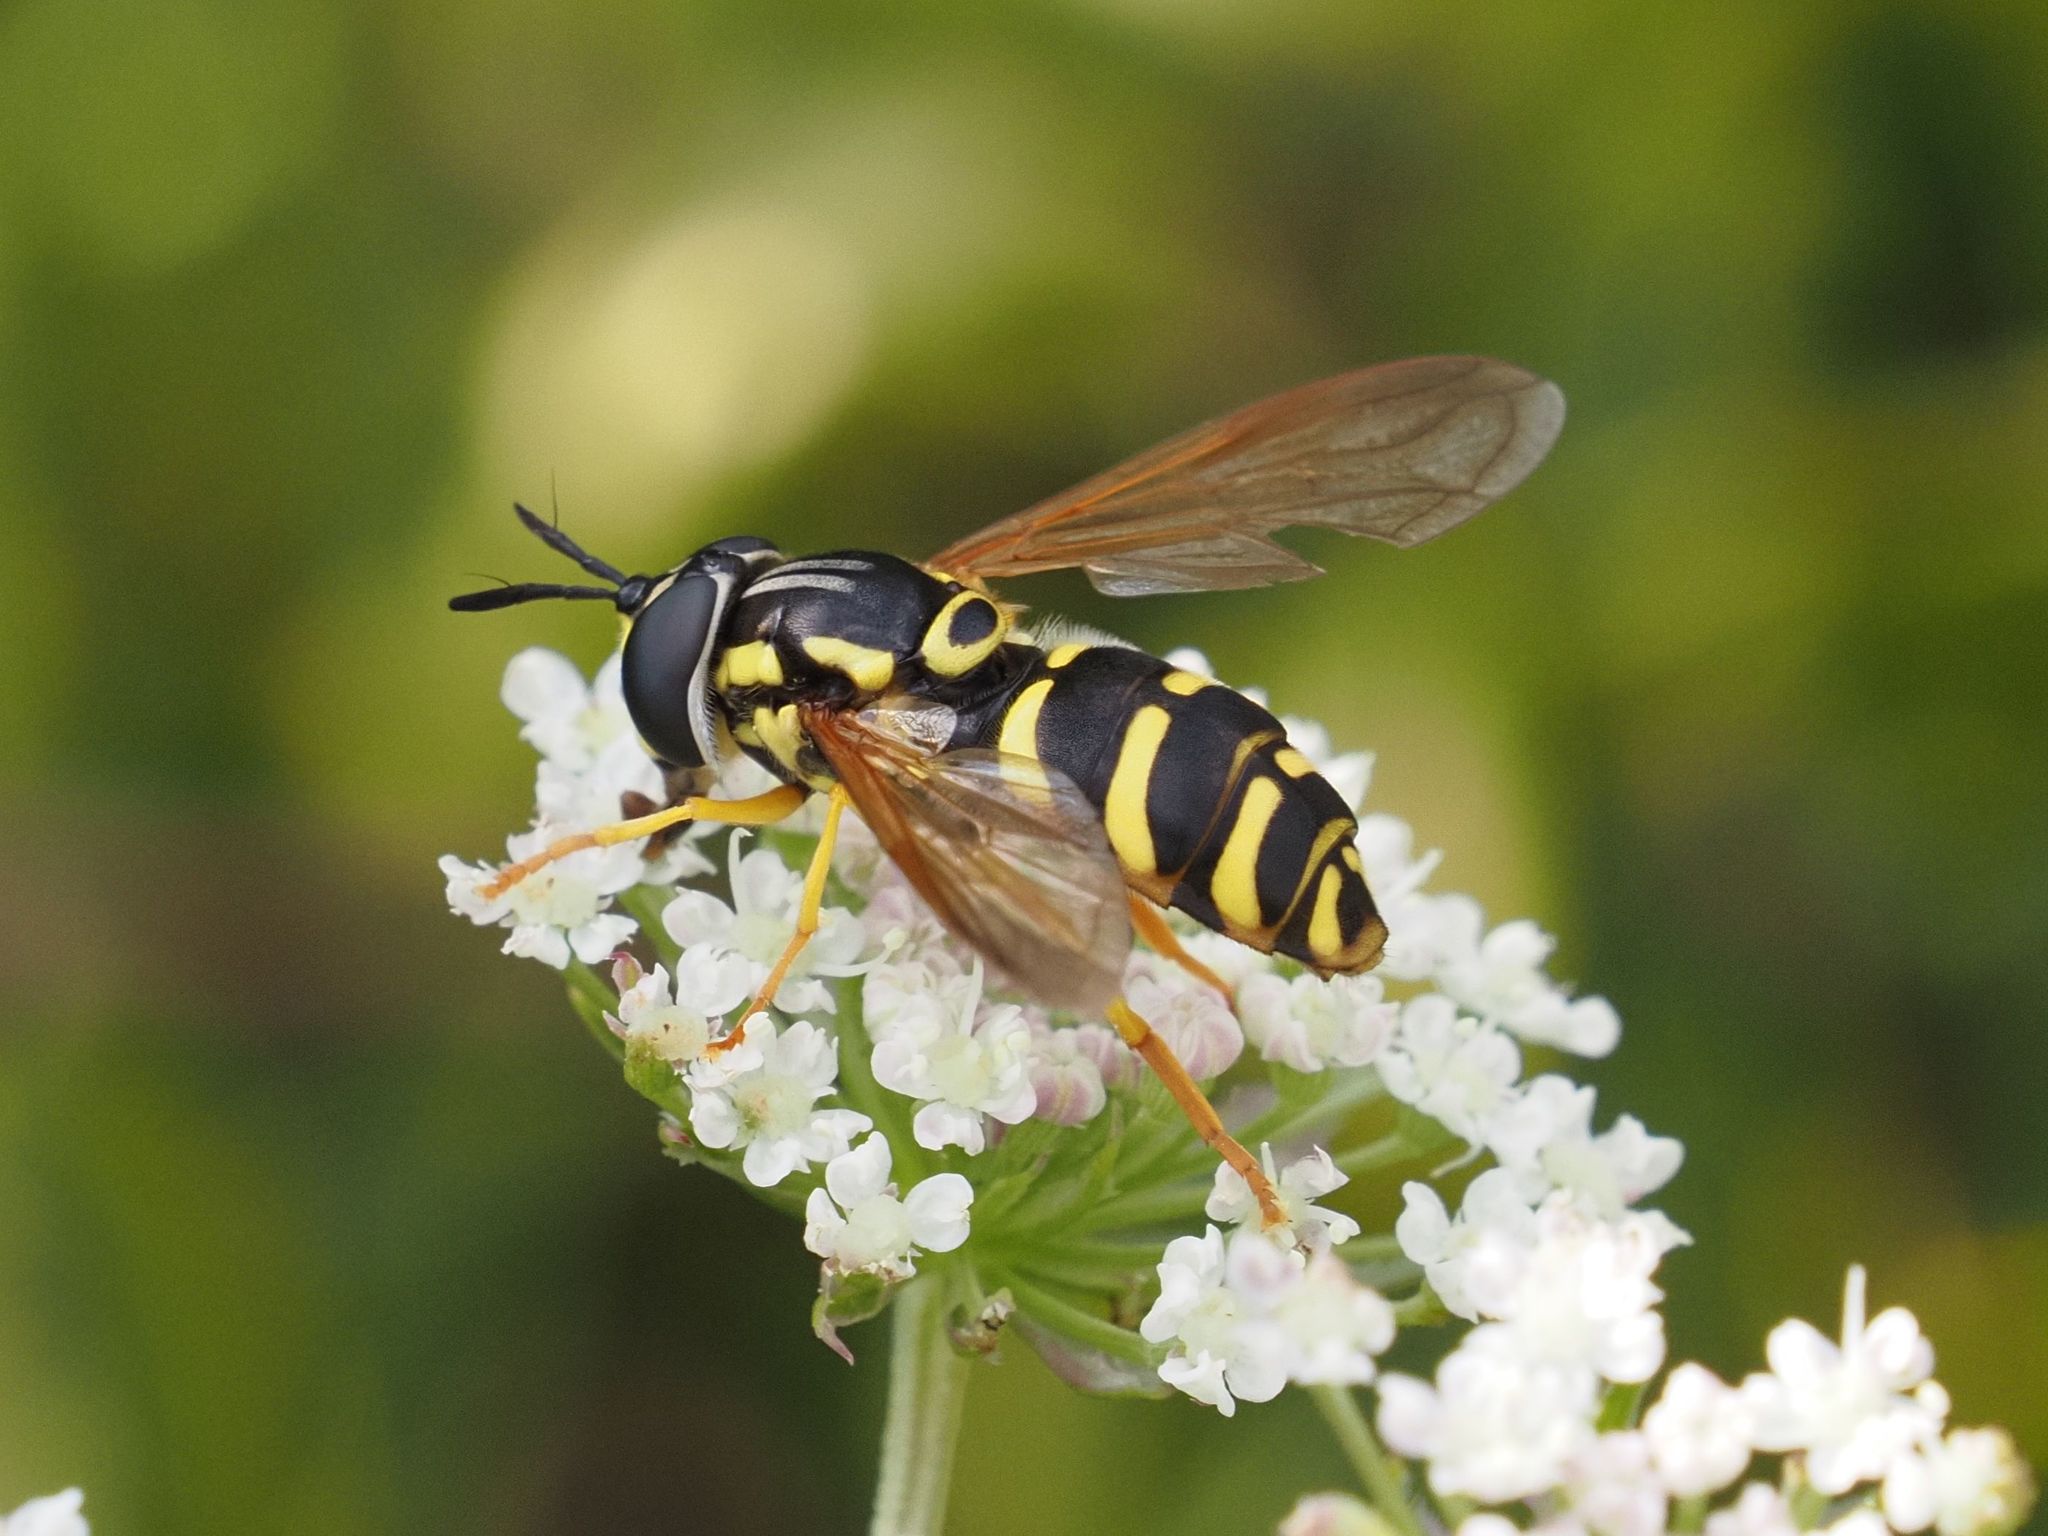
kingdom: Animalia
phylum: Arthropoda
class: Insecta
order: Diptera
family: Syrphidae
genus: Chrysotoxum
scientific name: Chrysotoxum elegans
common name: Zipperback
